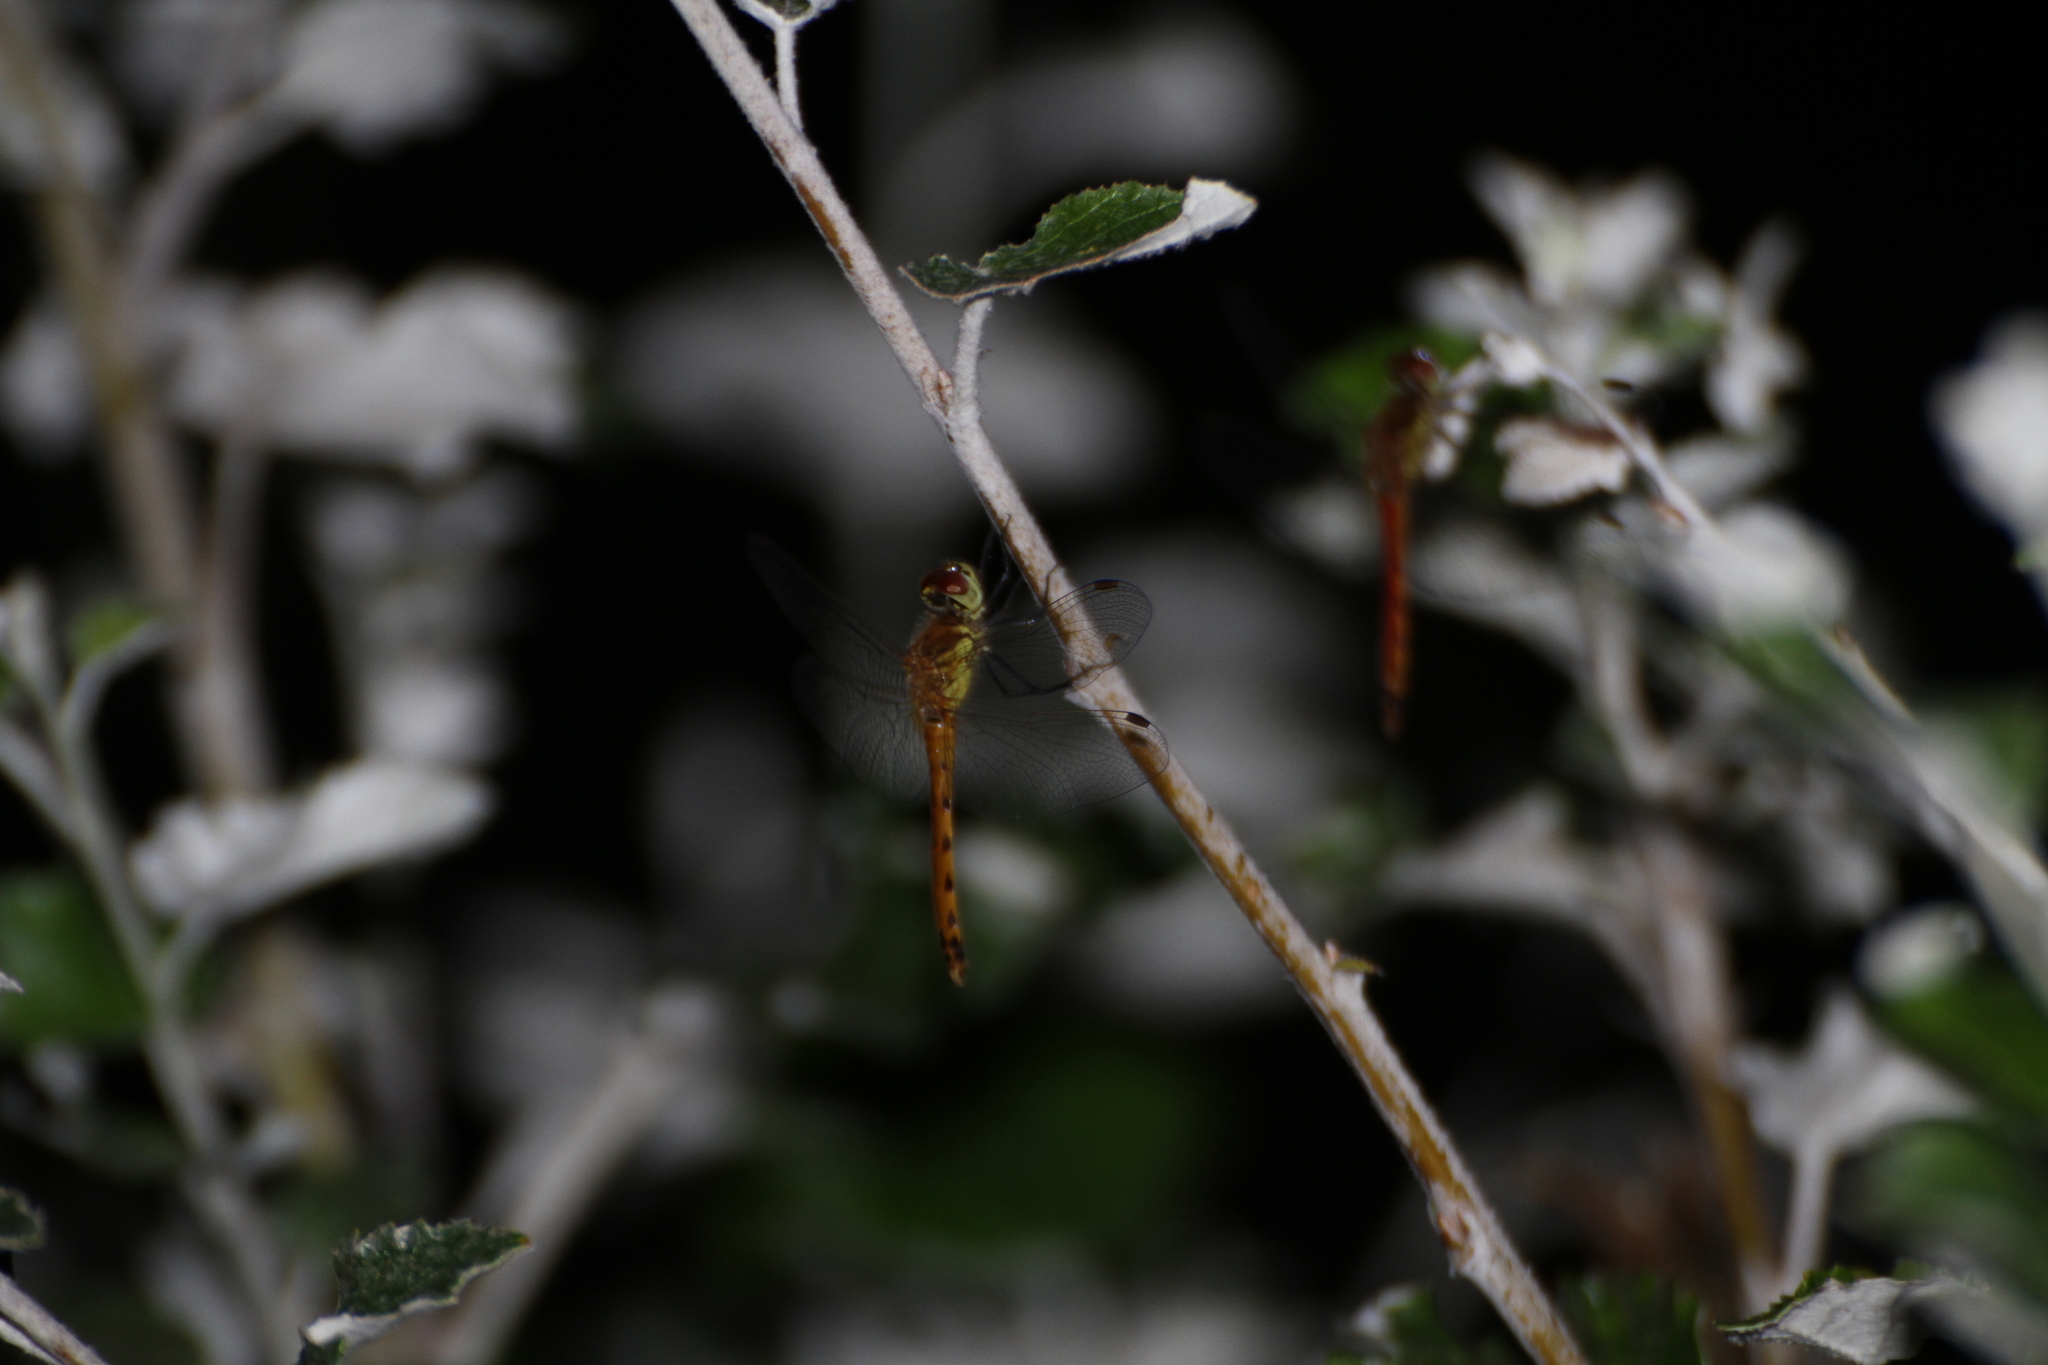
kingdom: Animalia
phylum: Arthropoda
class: Insecta
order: Odonata
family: Libellulidae
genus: Sympetrum
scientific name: Sympetrum depressiusculum
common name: Spotted darter
